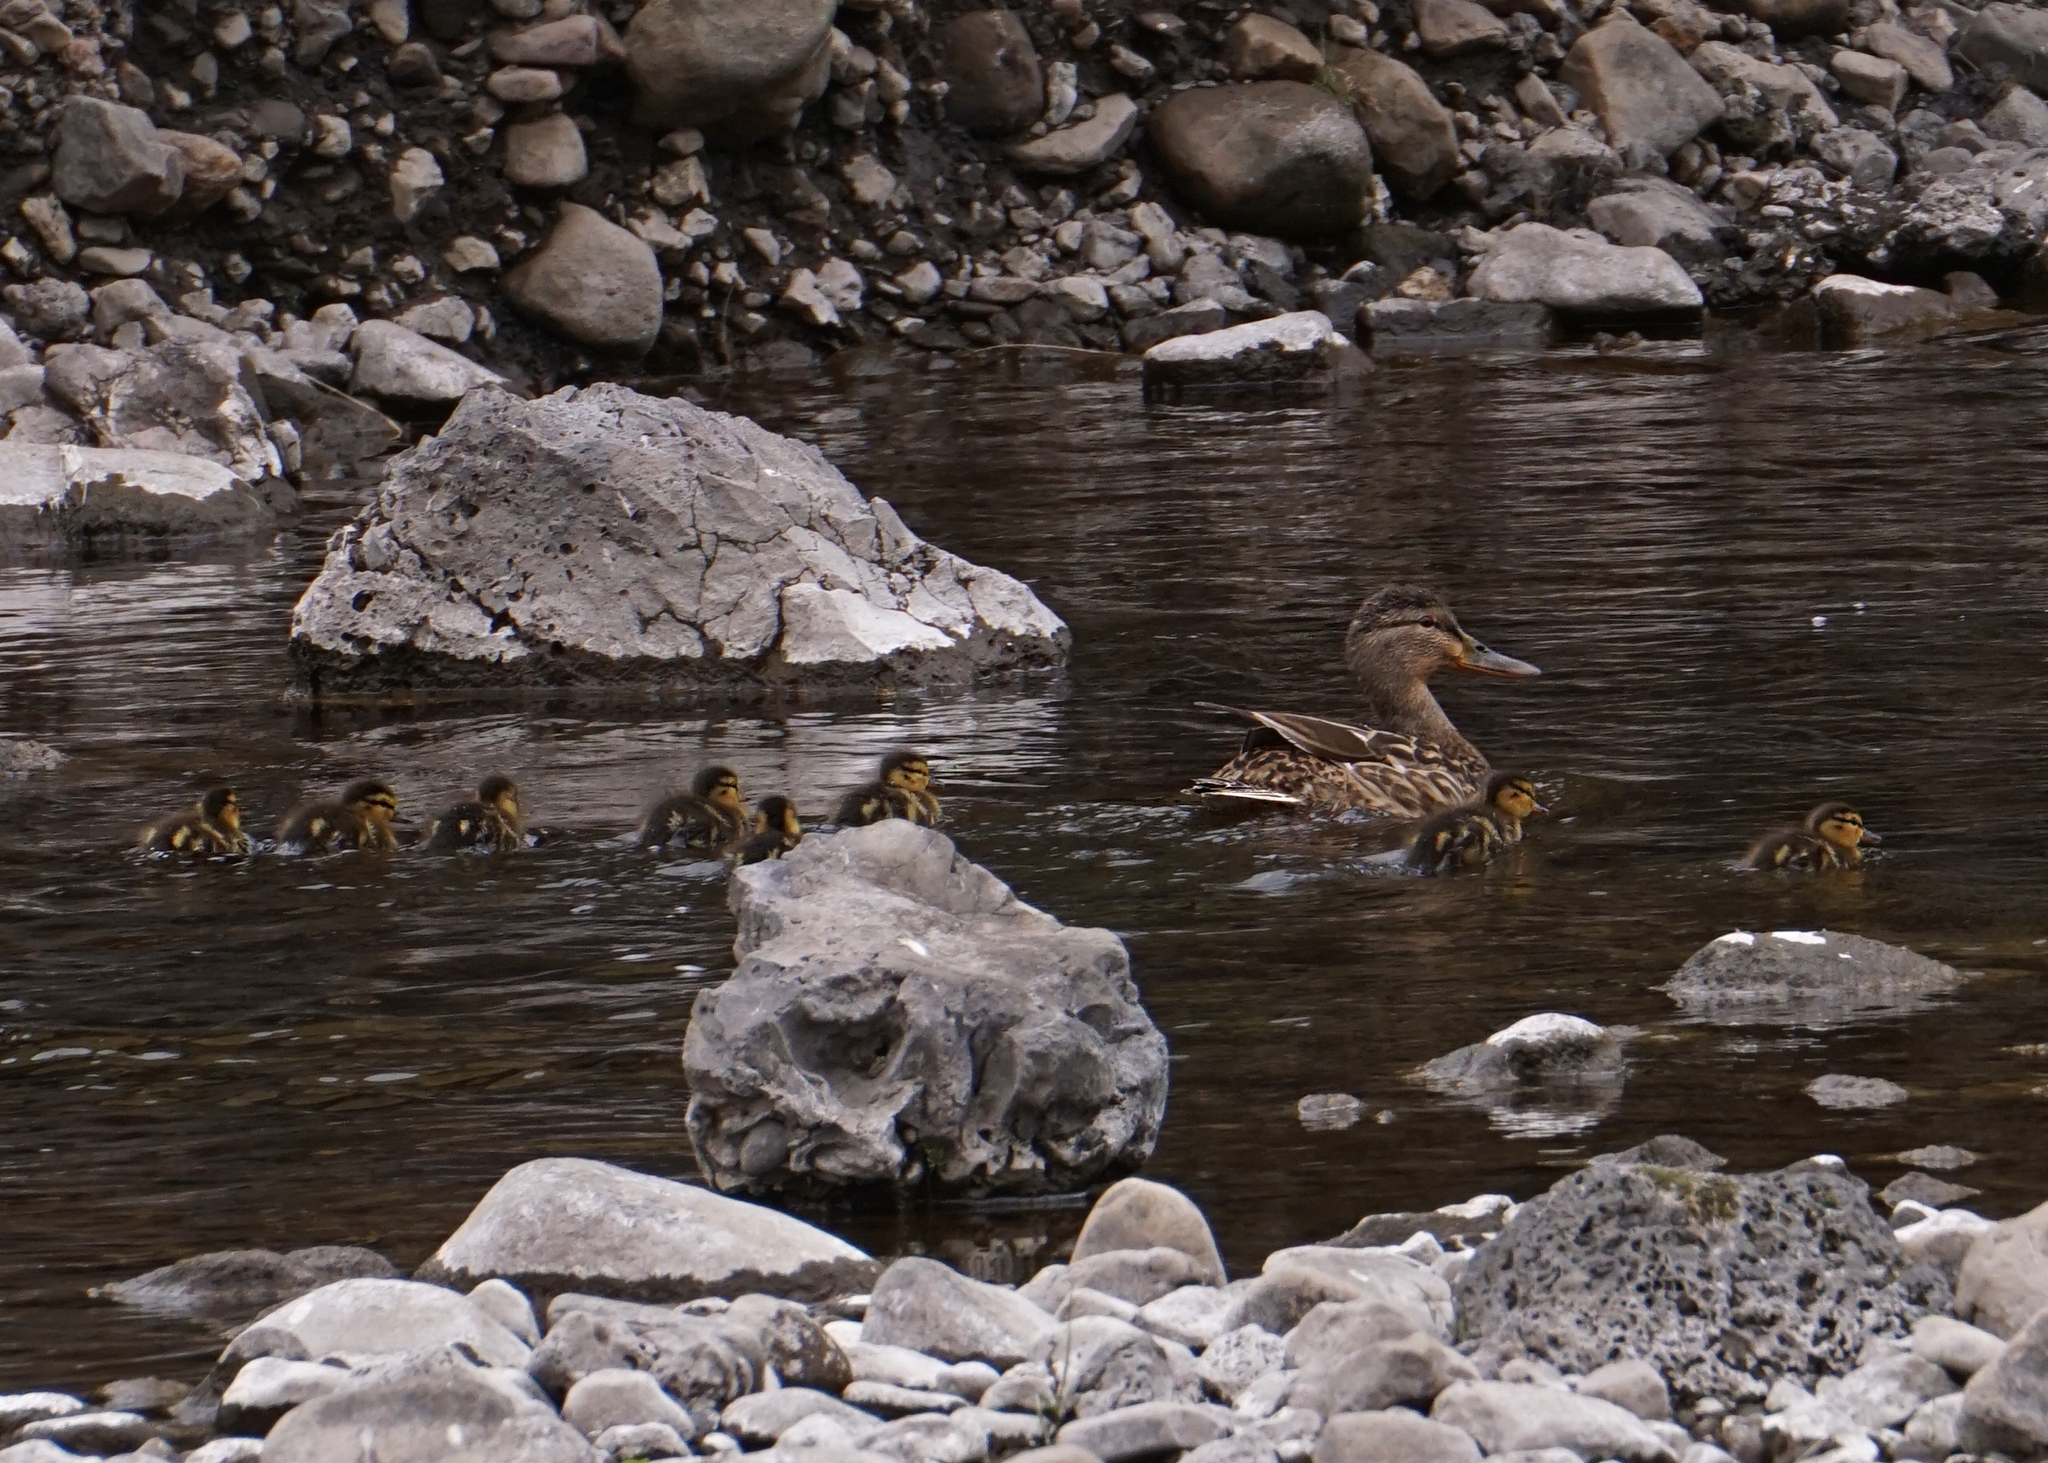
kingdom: Animalia
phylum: Chordata
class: Aves
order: Anseriformes
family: Anatidae
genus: Anas
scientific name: Anas platyrhynchos
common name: Mallard
